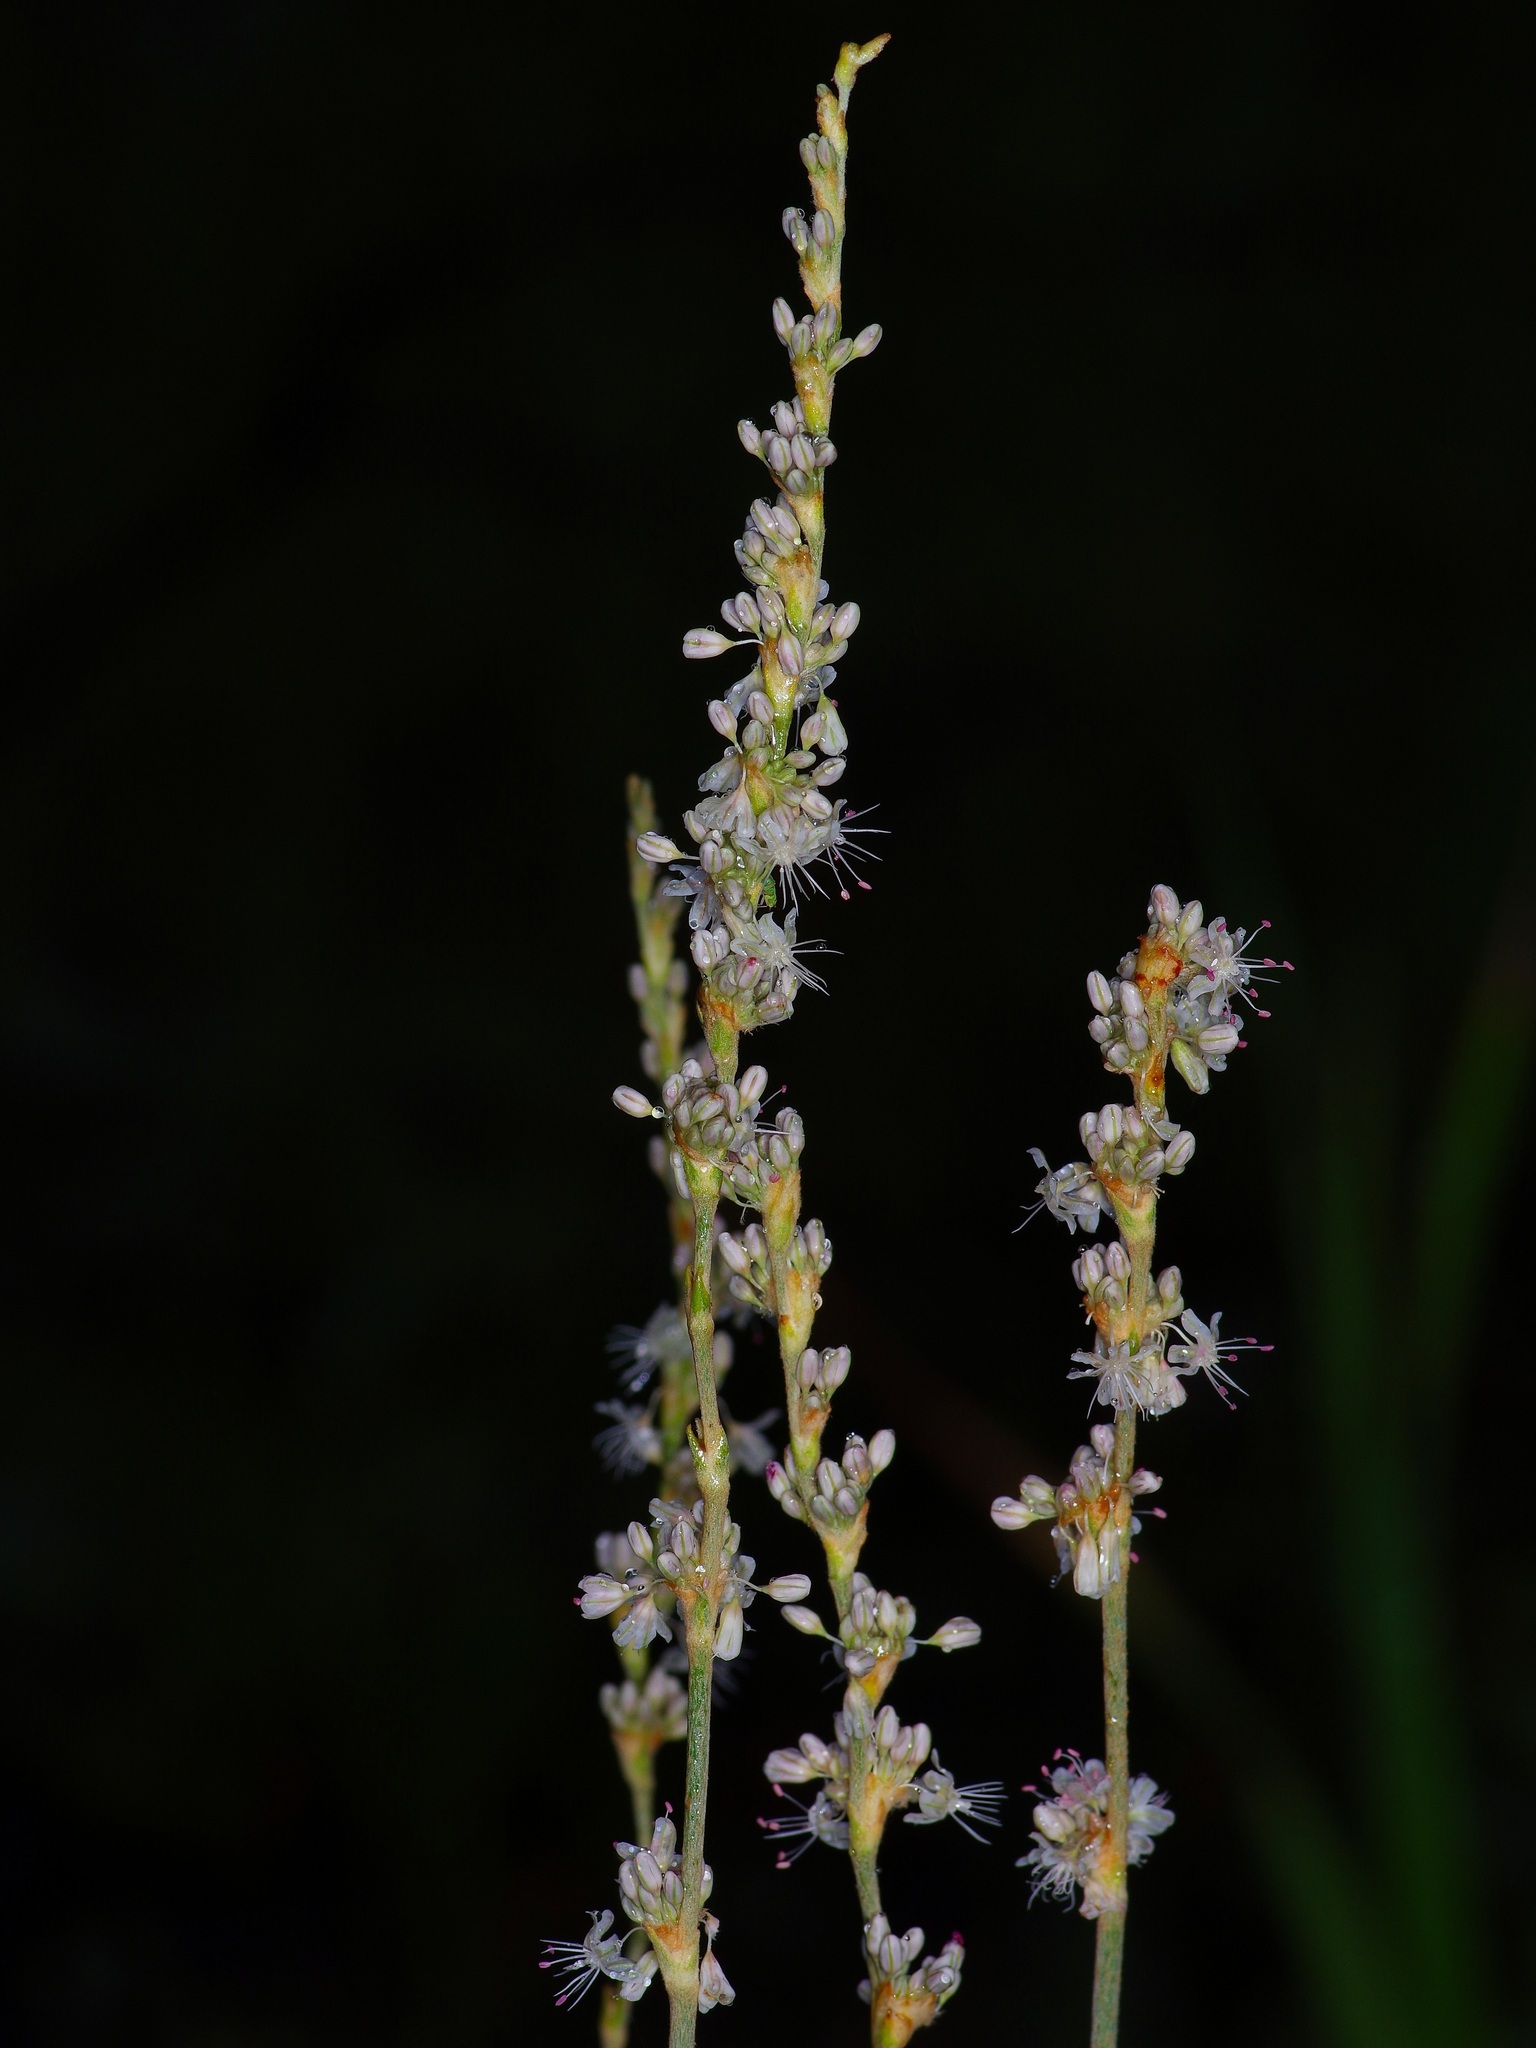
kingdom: Plantae
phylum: Tracheophyta
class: Magnoliopsida
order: Caryophyllales
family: Polygonaceae
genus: Eriogonum
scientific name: Eriogonum racemosum
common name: Redroot wild buckwheat
